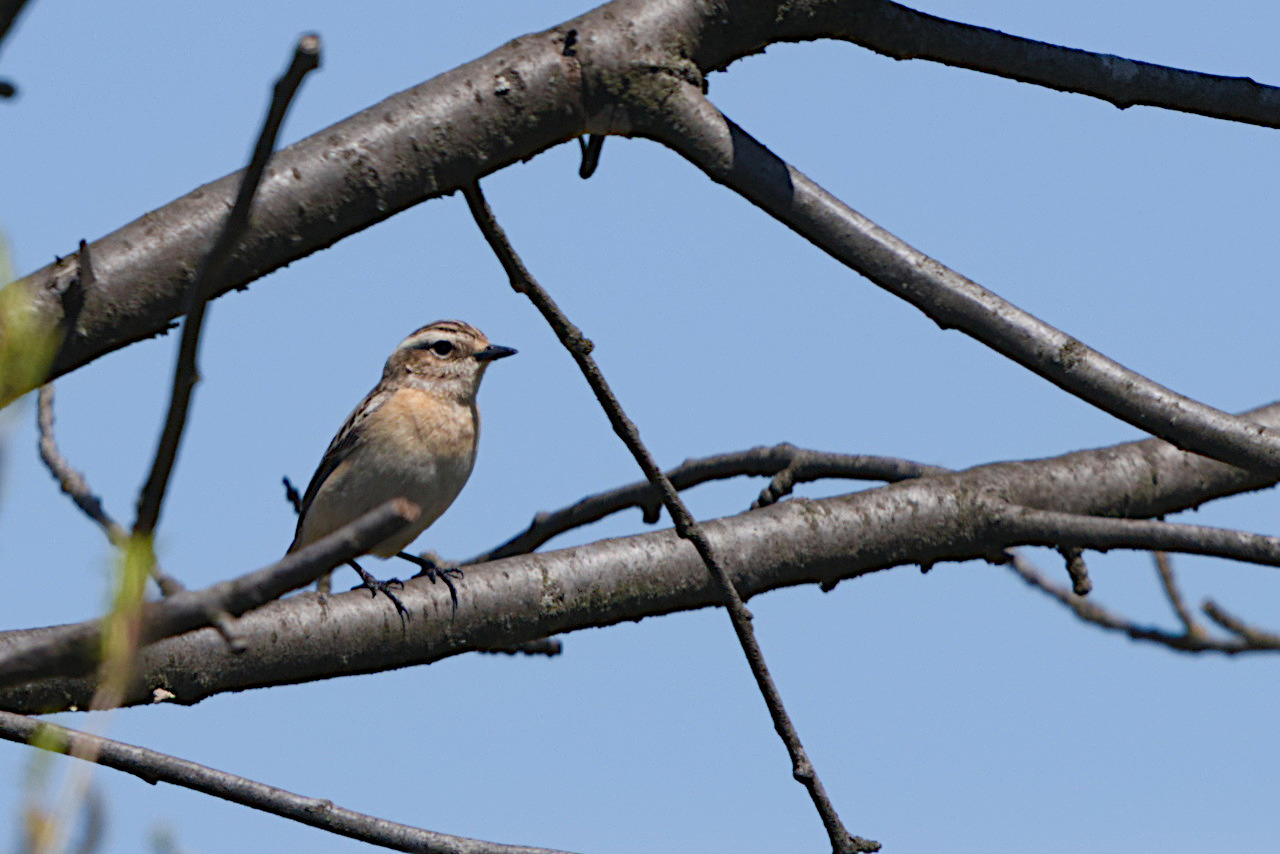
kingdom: Animalia
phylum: Chordata
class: Aves
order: Passeriformes
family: Muscicapidae
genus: Saxicola
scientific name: Saxicola rubetra
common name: Whinchat
